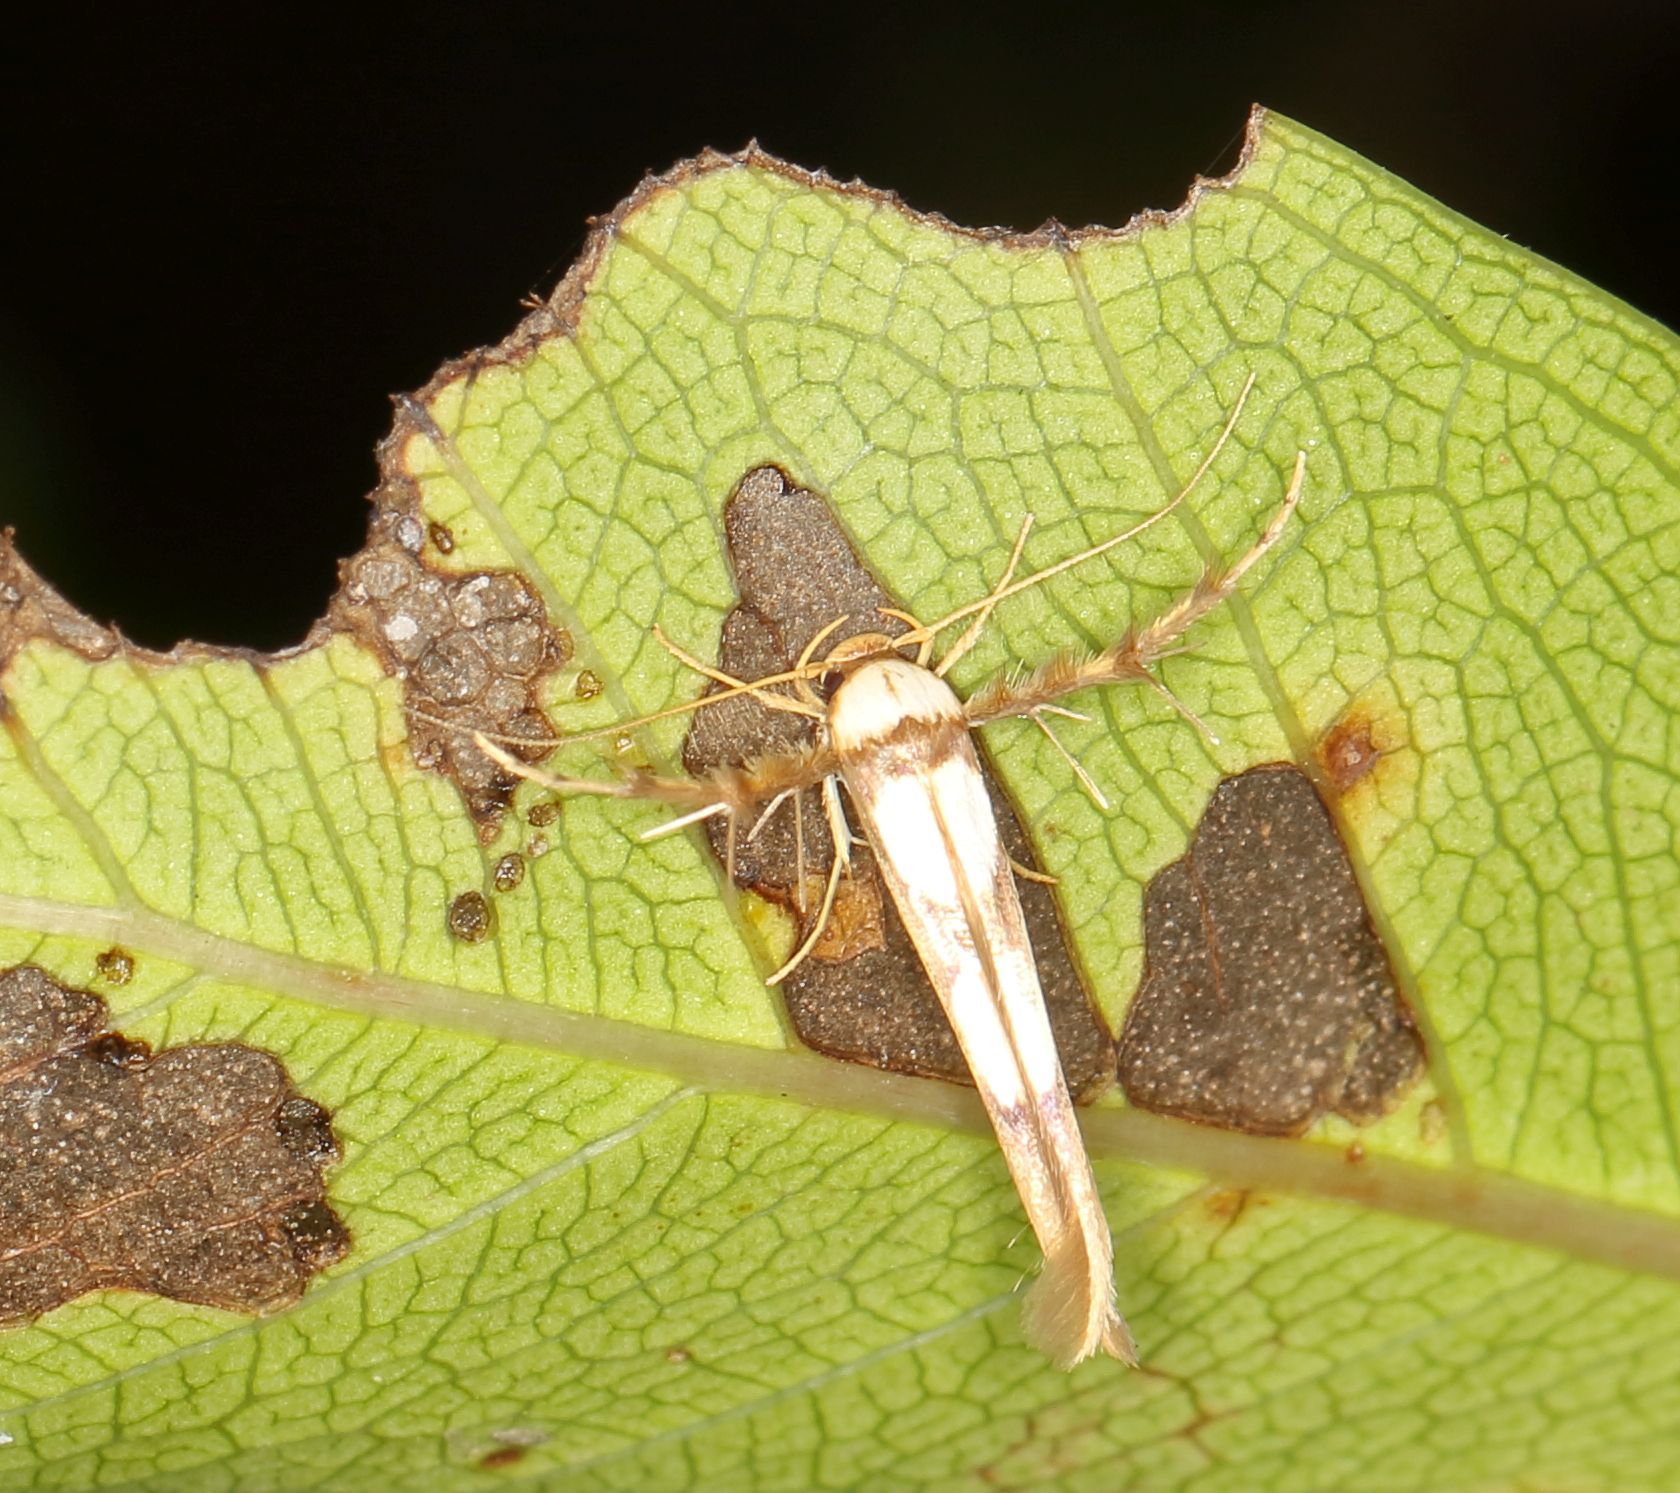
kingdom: Animalia
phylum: Arthropoda
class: Insecta
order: Lepidoptera
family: Stathmopodidae
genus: Stathmopoda
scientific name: Stathmopoda crassella
